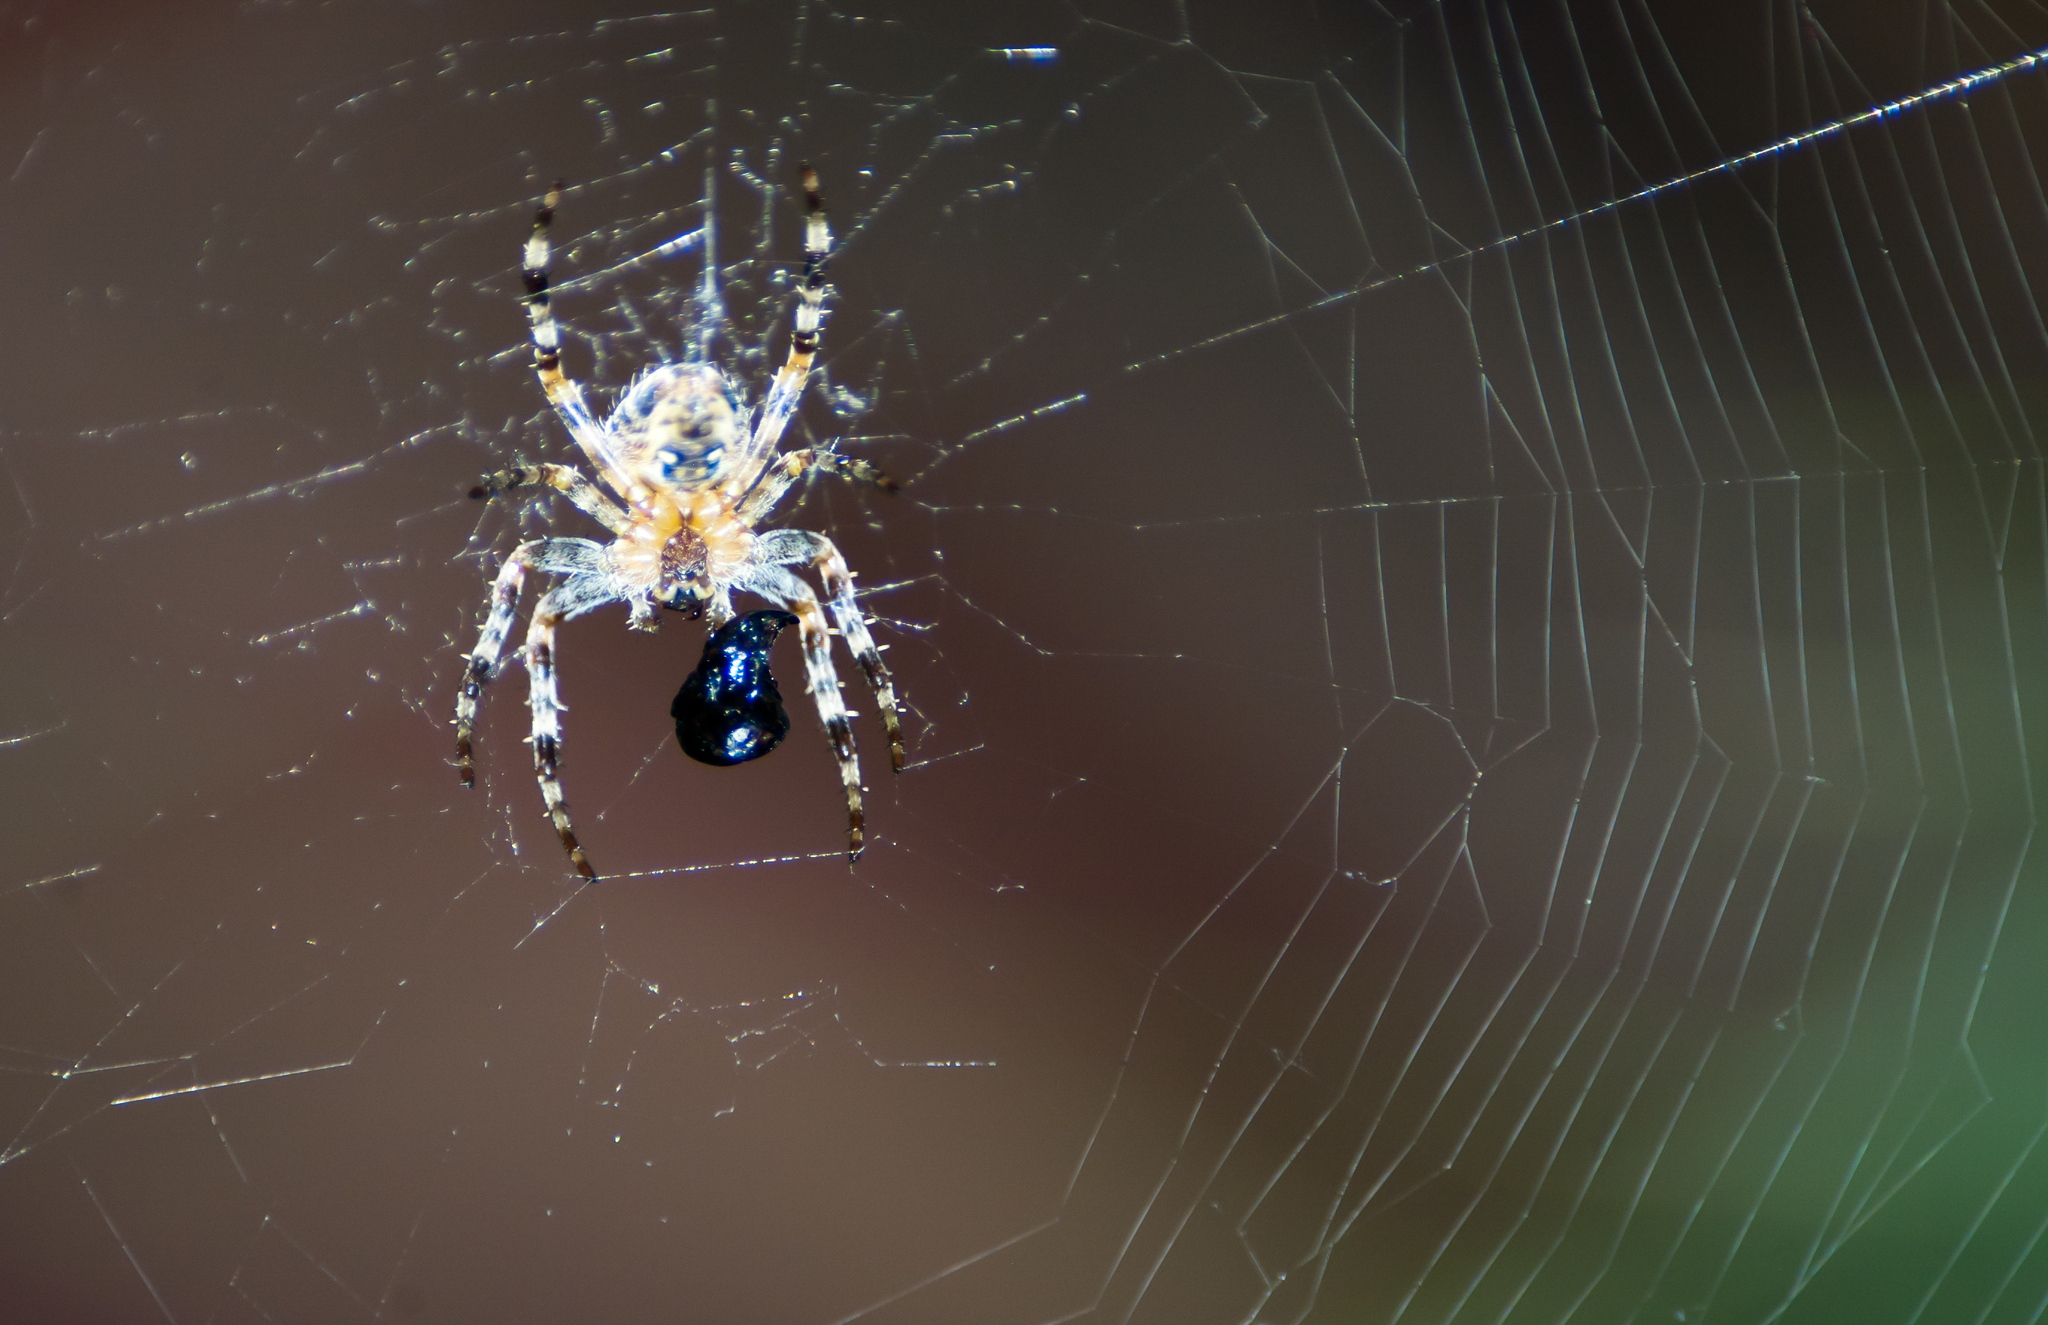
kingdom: Animalia
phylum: Arthropoda
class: Arachnida
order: Araneae
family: Araneidae
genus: Araneus
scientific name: Araneus
